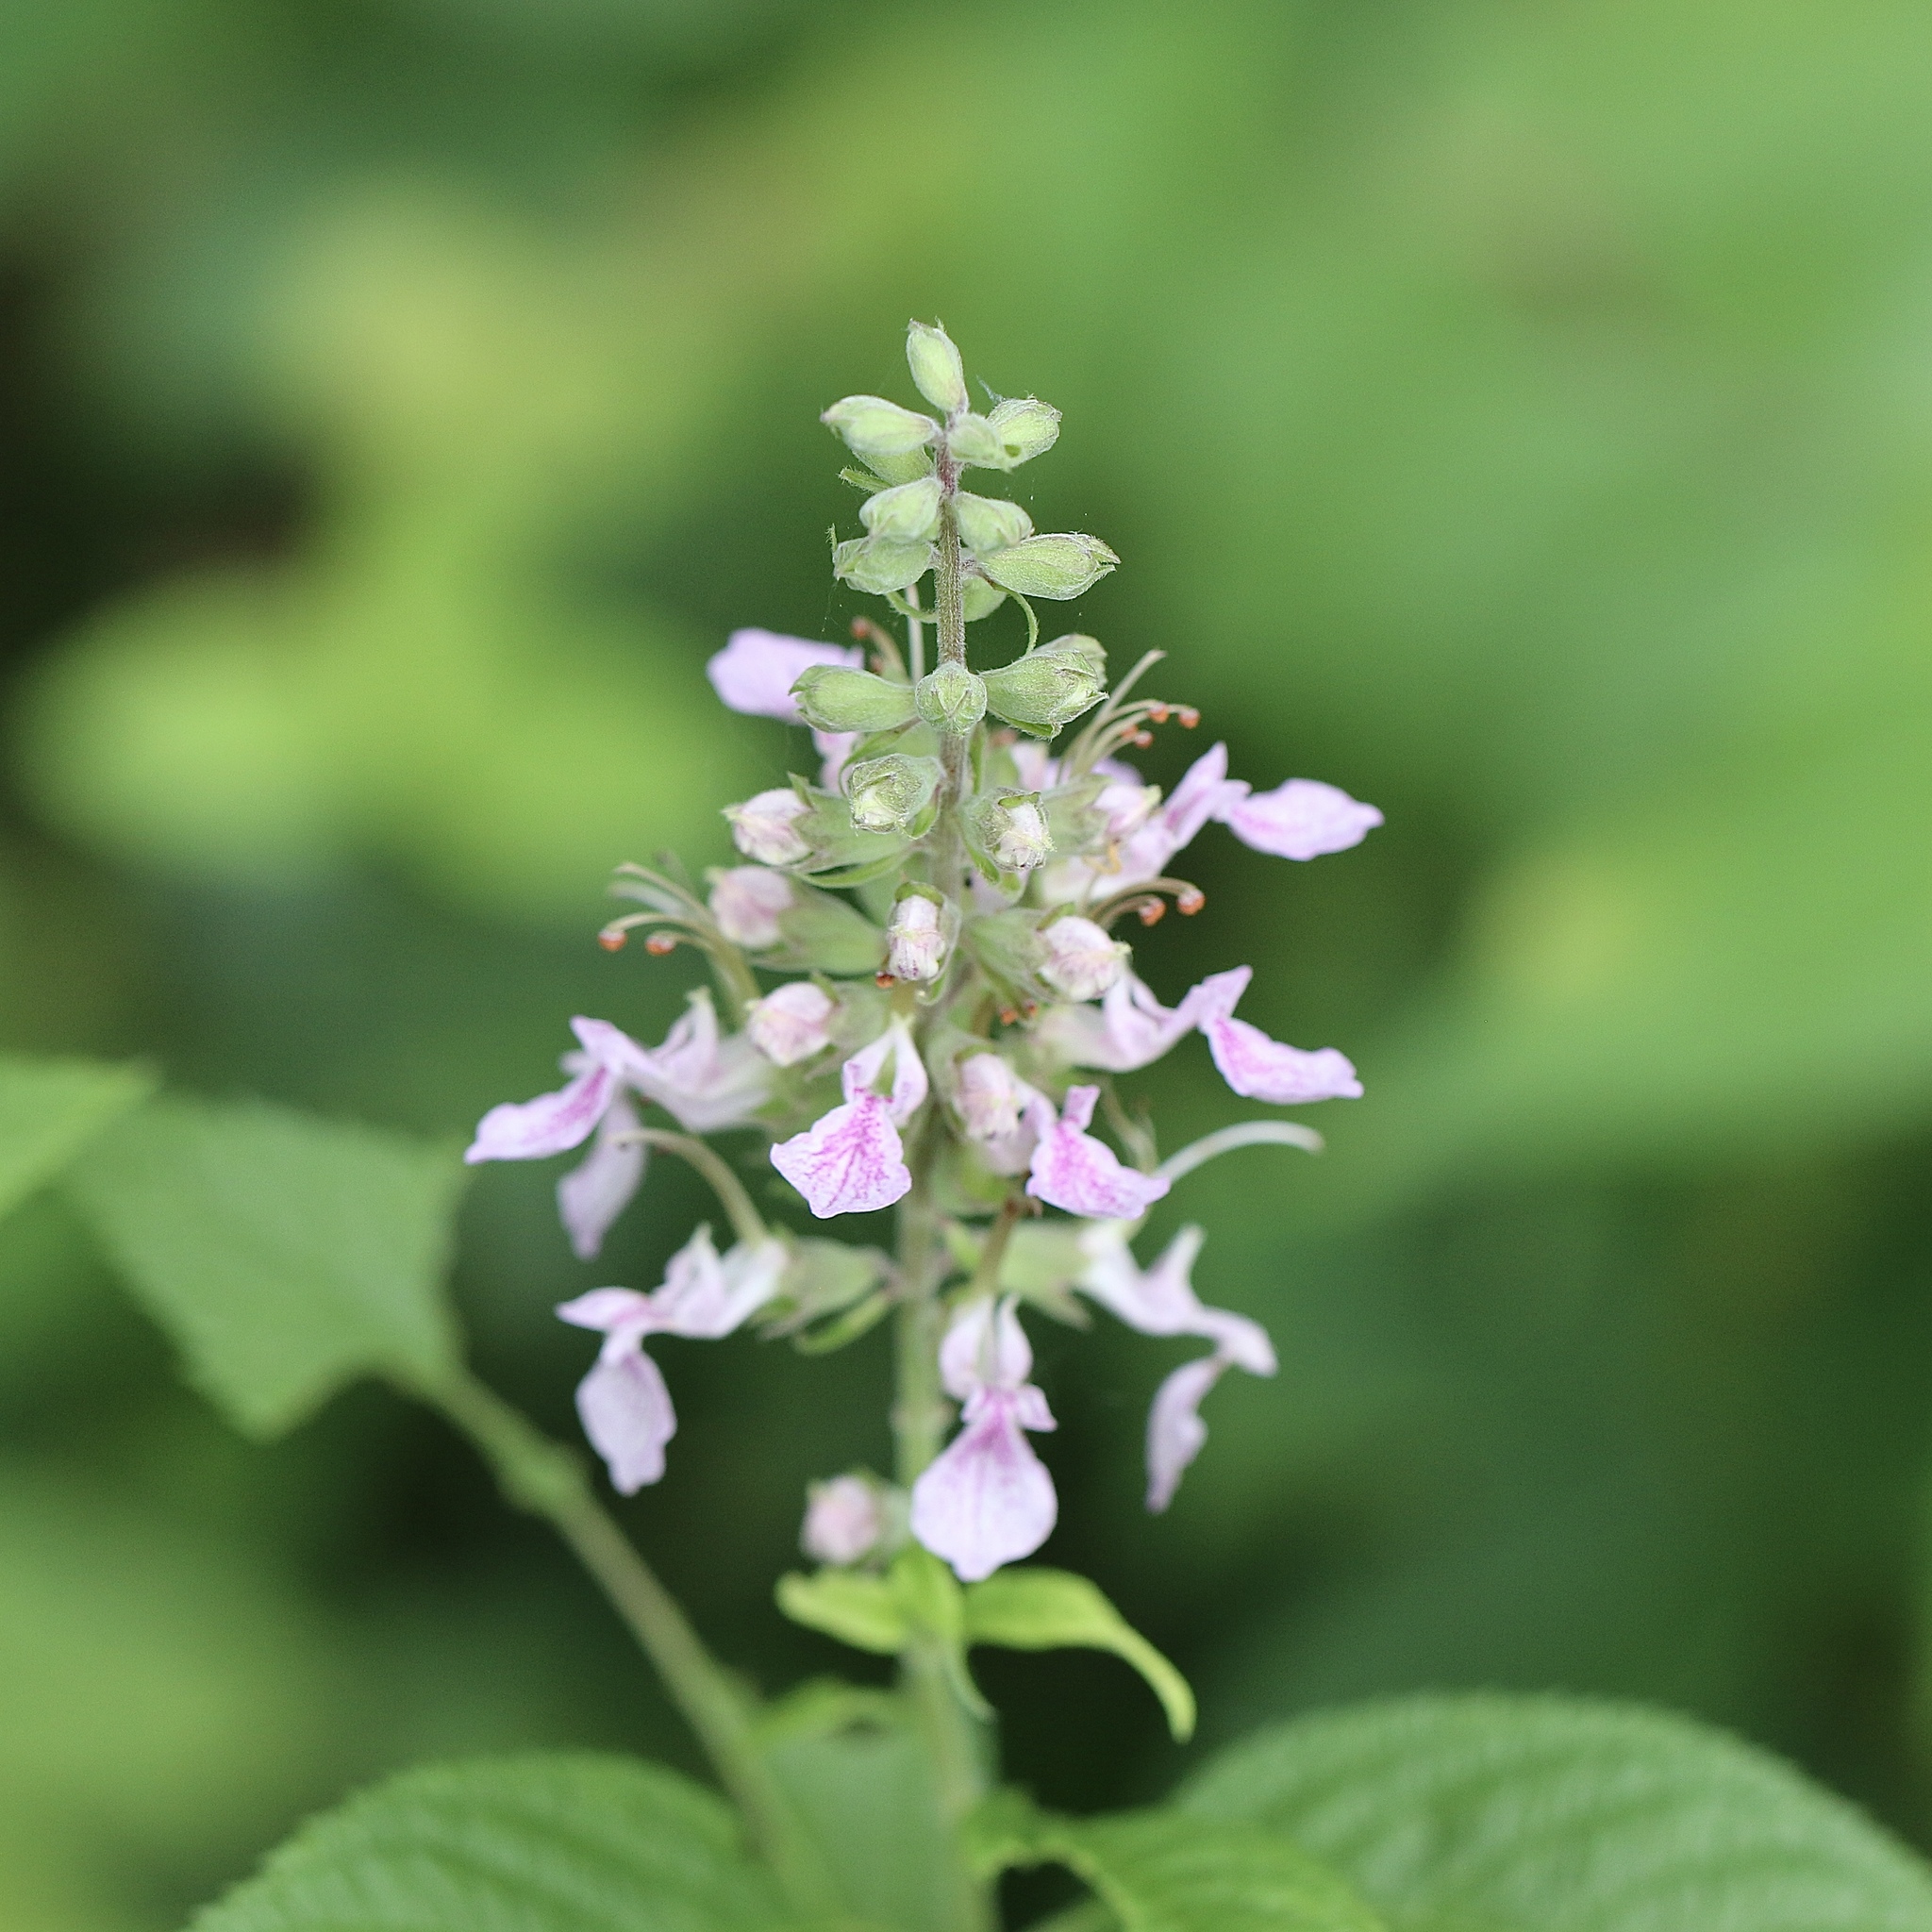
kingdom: Plantae
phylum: Tracheophyta
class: Magnoliopsida
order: Lamiales
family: Lamiaceae
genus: Teucrium
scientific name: Teucrium canadense
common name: American germander
